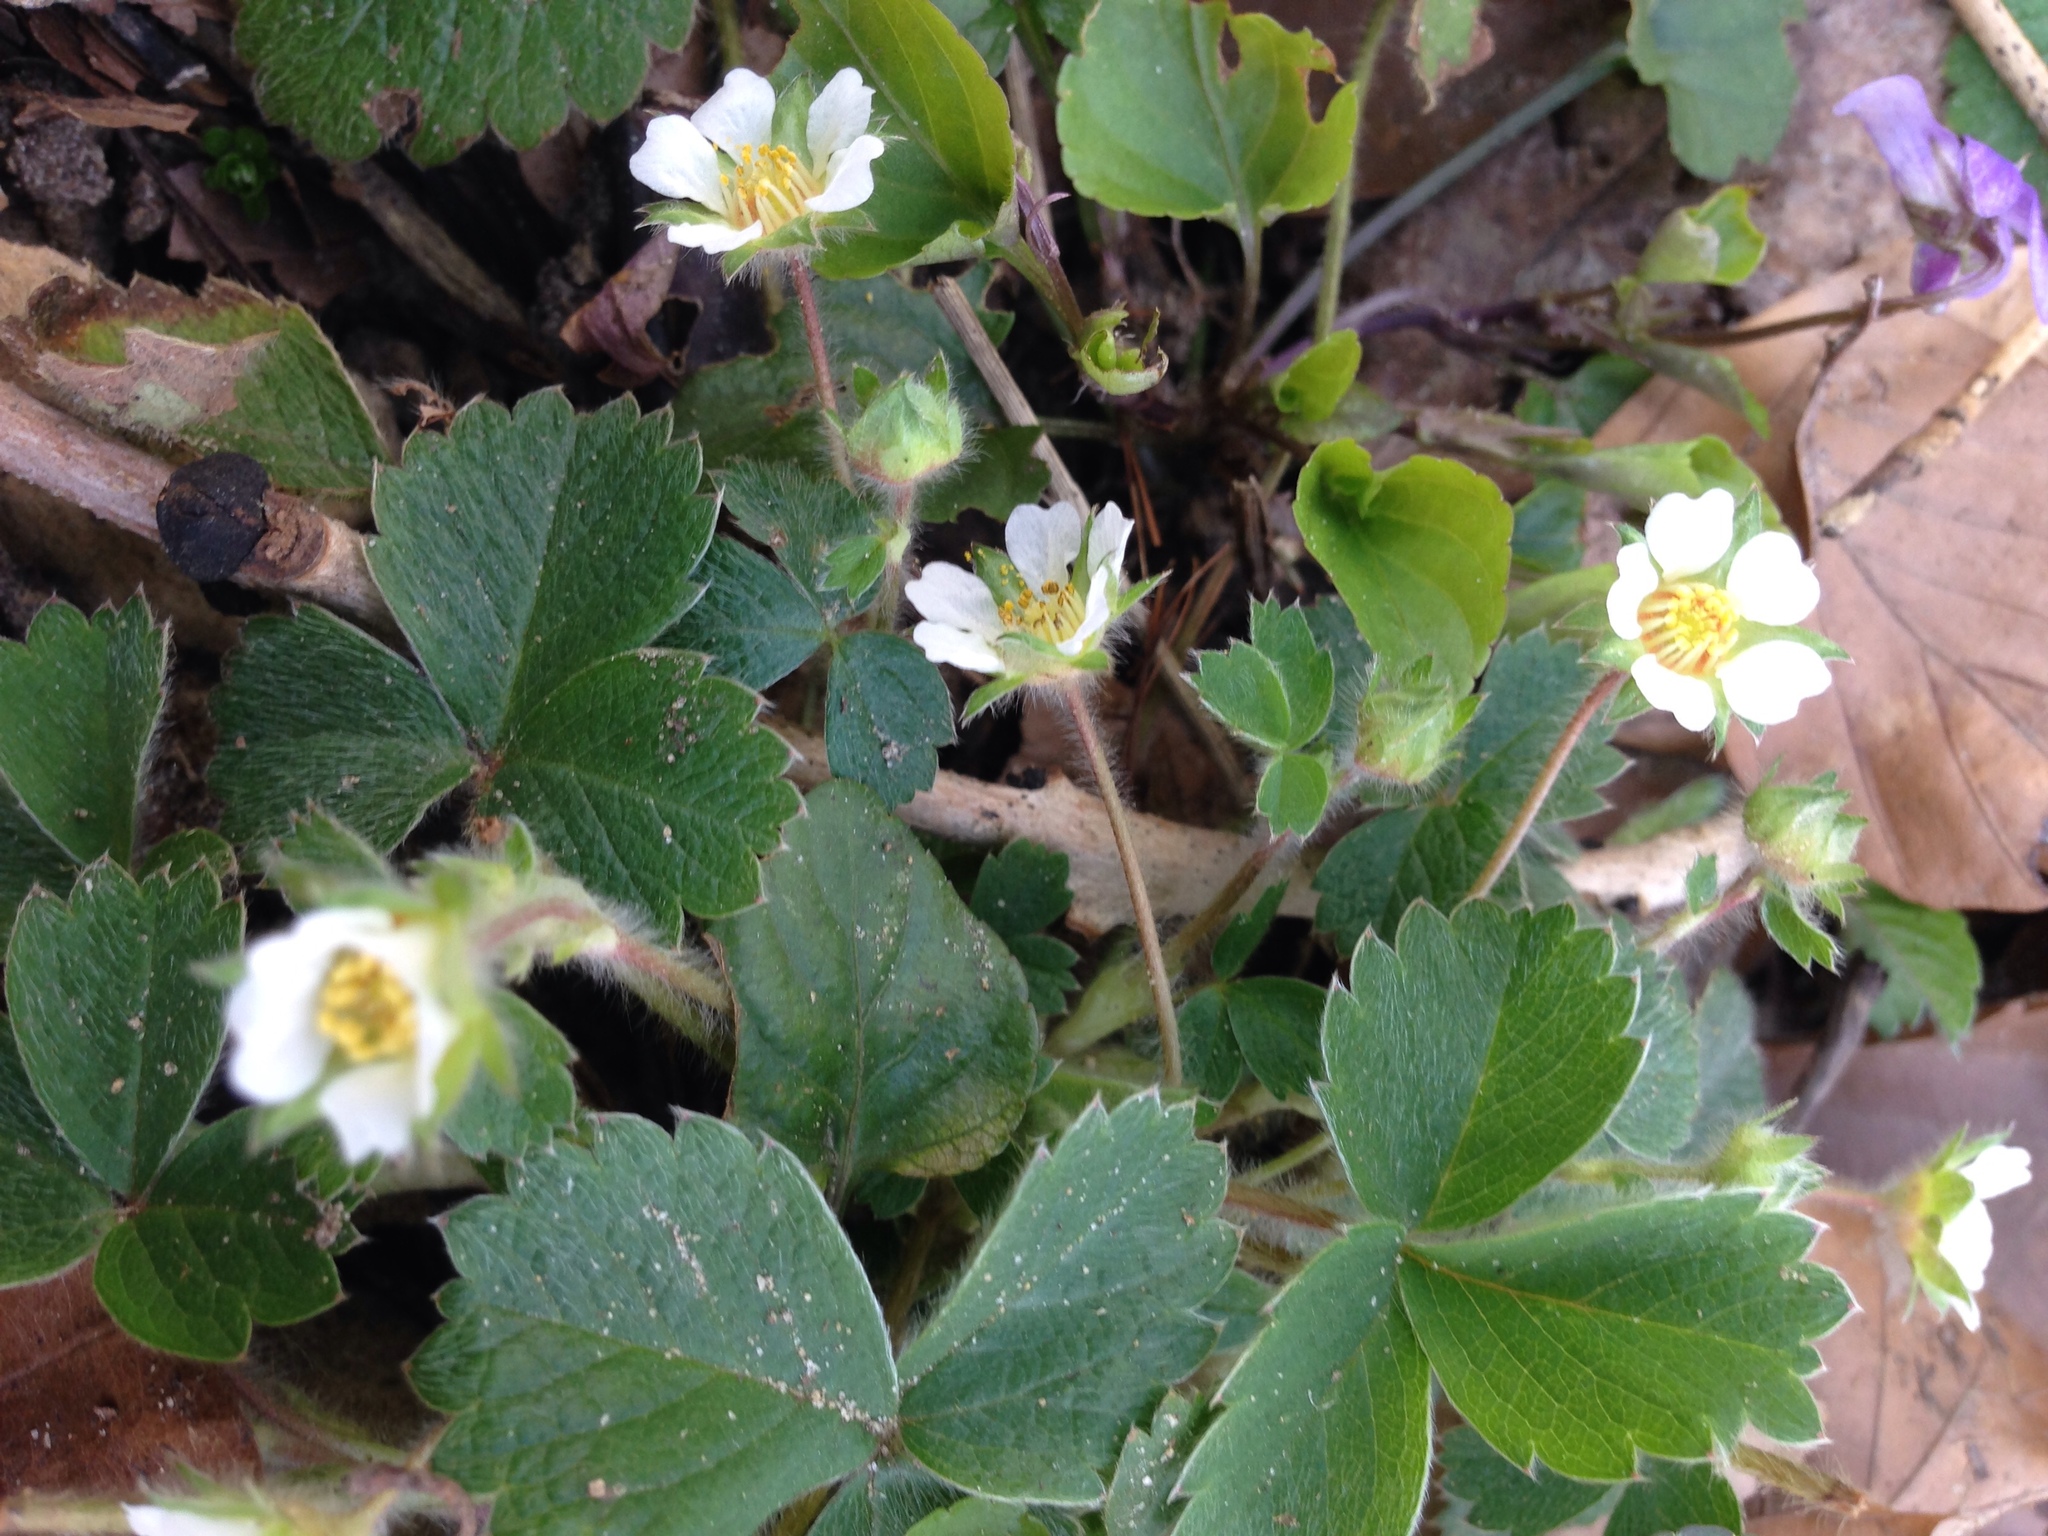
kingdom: Plantae
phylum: Tracheophyta
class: Magnoliopsida
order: Rosales
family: Rosaceae
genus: Potentilla
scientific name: Potentilla sterilis
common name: Barren strawberry
